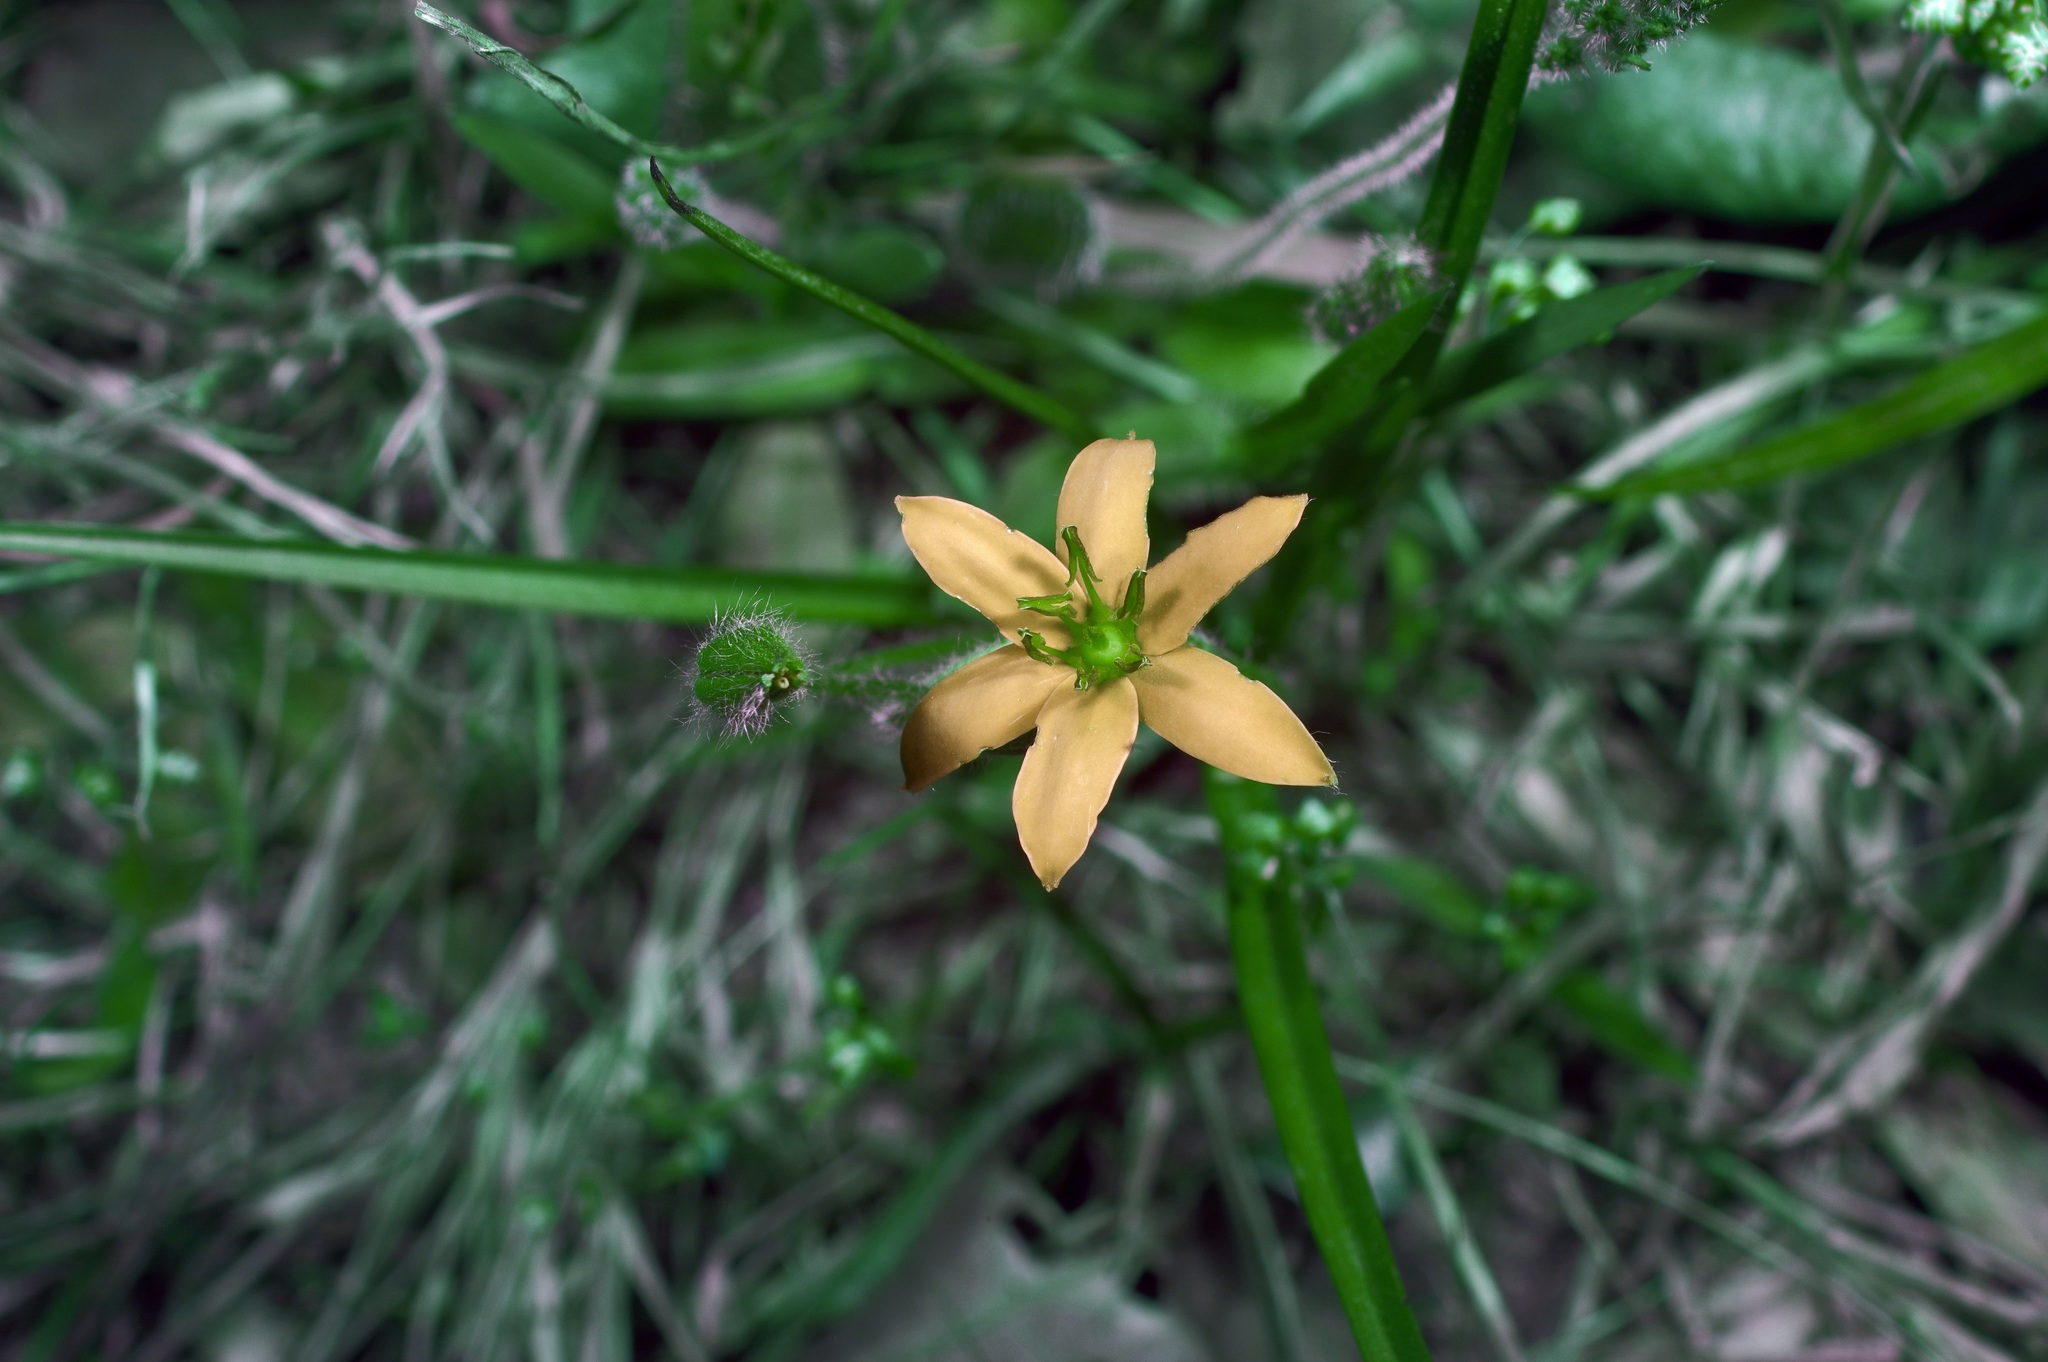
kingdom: Plantae
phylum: Tracheophyta
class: Liliopsida
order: Asparagales
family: Hypoxidaceae
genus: Hypoxis
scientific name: Hypoxis hirsuta
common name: Common goldstar
